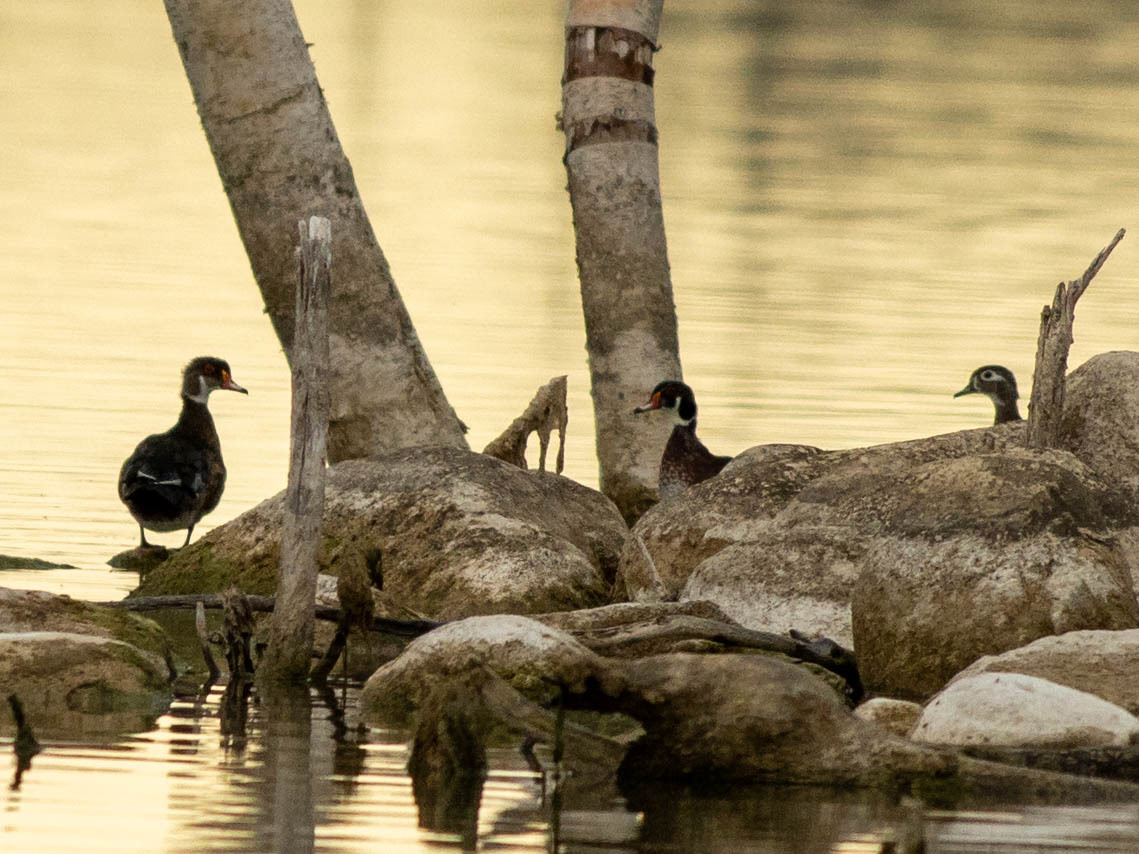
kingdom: Animalia
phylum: Chordata
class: Aves
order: Anseriformes
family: Anatidae
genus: Aix
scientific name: Aix sponsa
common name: Wood duck
